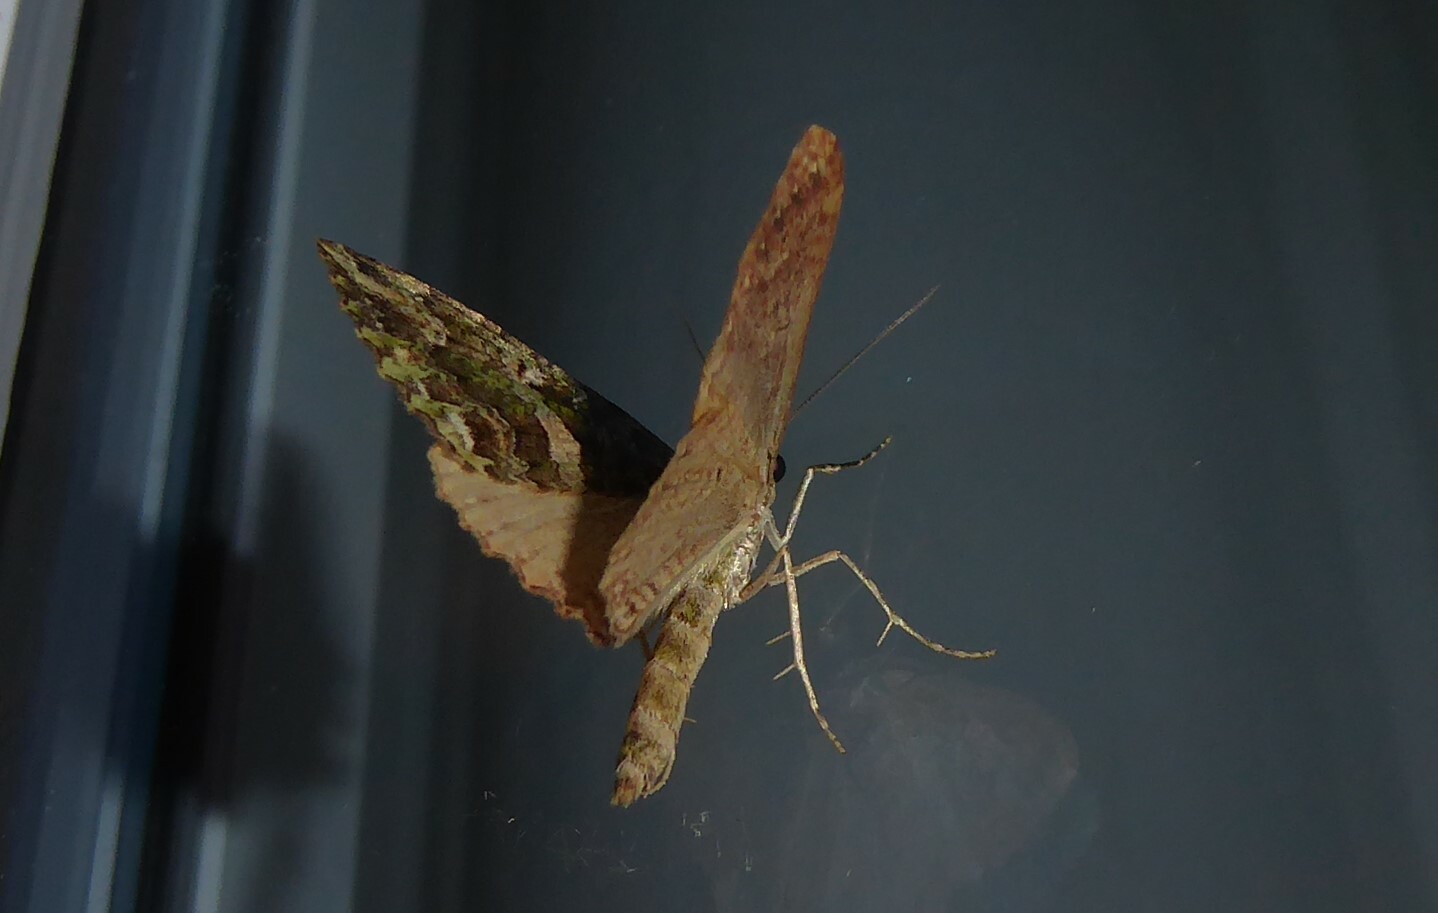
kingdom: Animalia
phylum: Arthropoda
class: Insecta
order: Lepidoptera
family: Geometridae
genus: Austrocidaria
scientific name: Austrocidaria similata
